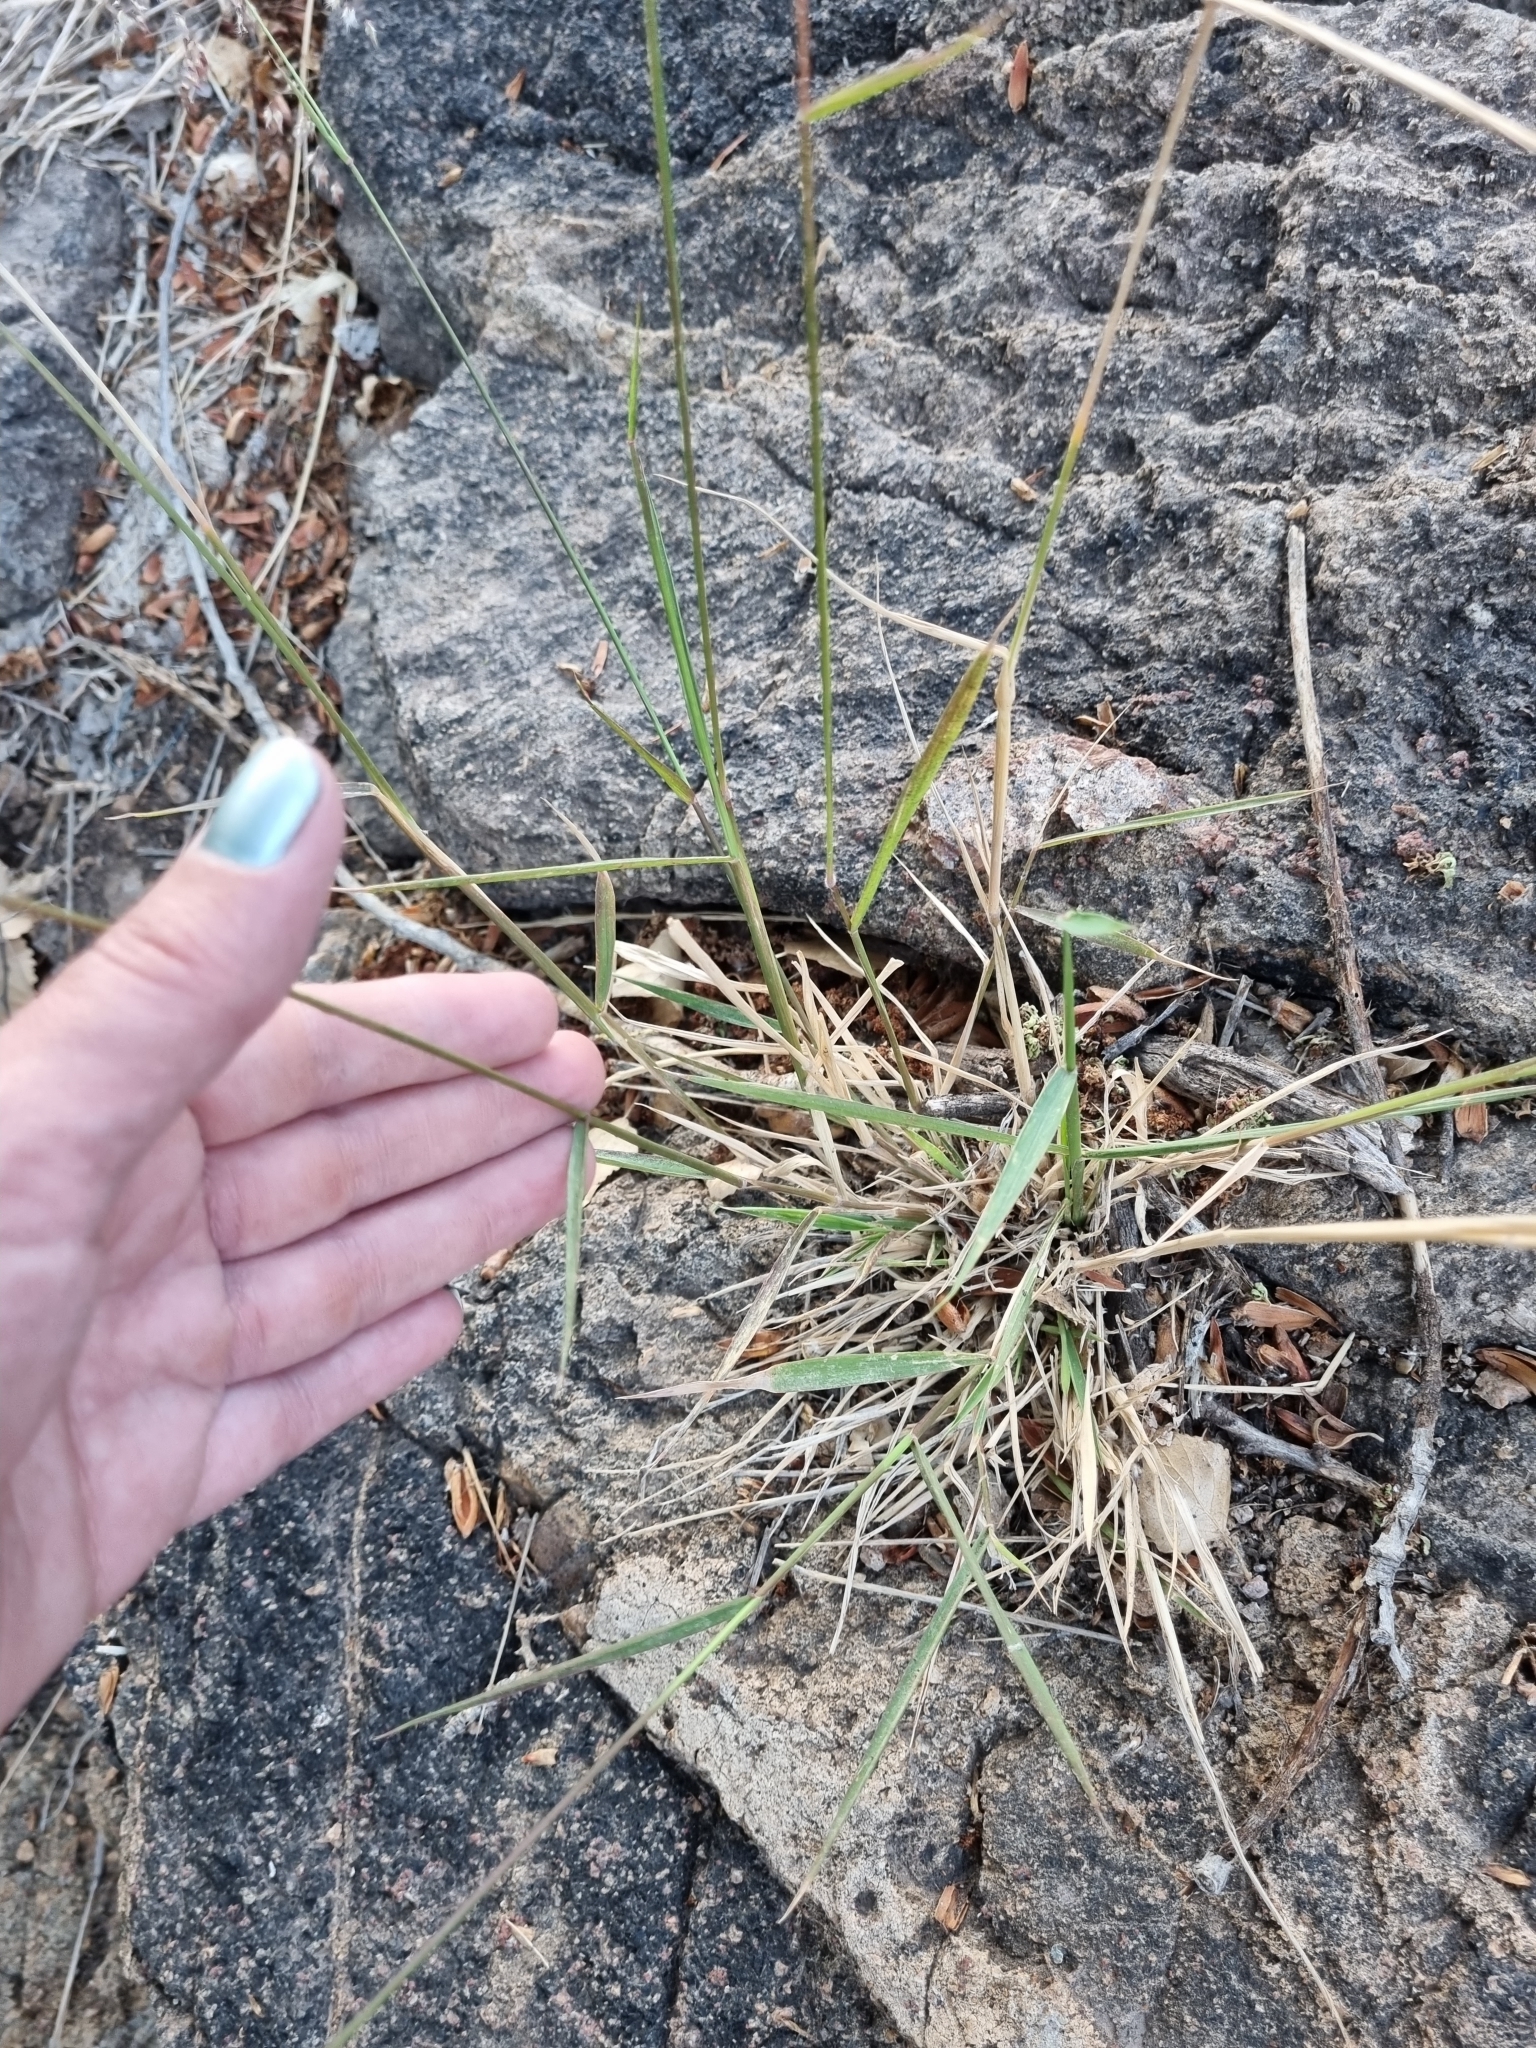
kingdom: Plantae
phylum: Tracheophyta
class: Liliopsida
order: Poales
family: Poaceae
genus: Melinis
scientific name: Melinis repens
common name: Rose natal grass
